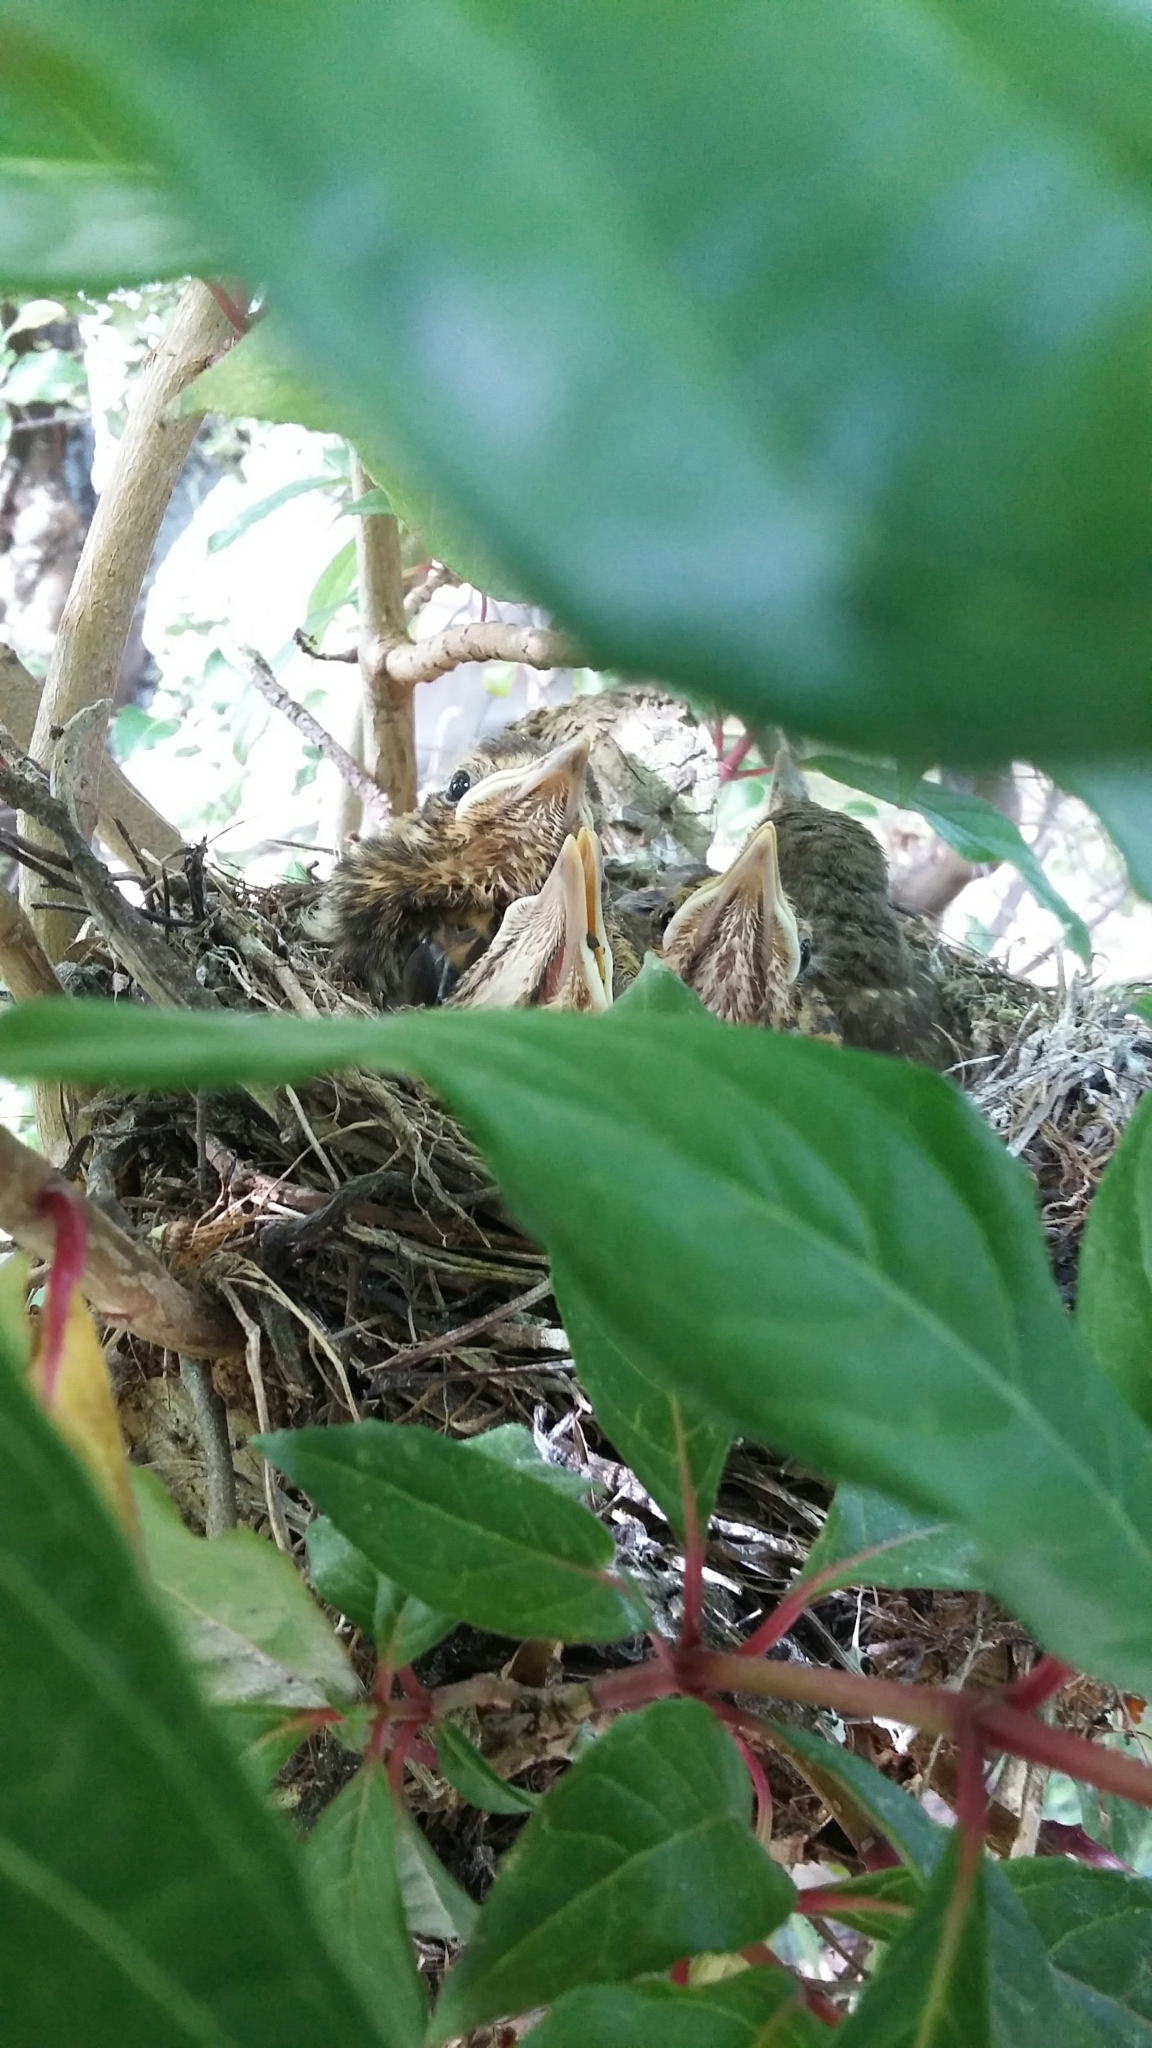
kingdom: Animalia
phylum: Chordata
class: Aves
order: Passeriformes
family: Turdidae
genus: Turdus
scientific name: Turdus philomelos
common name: Song thrush
